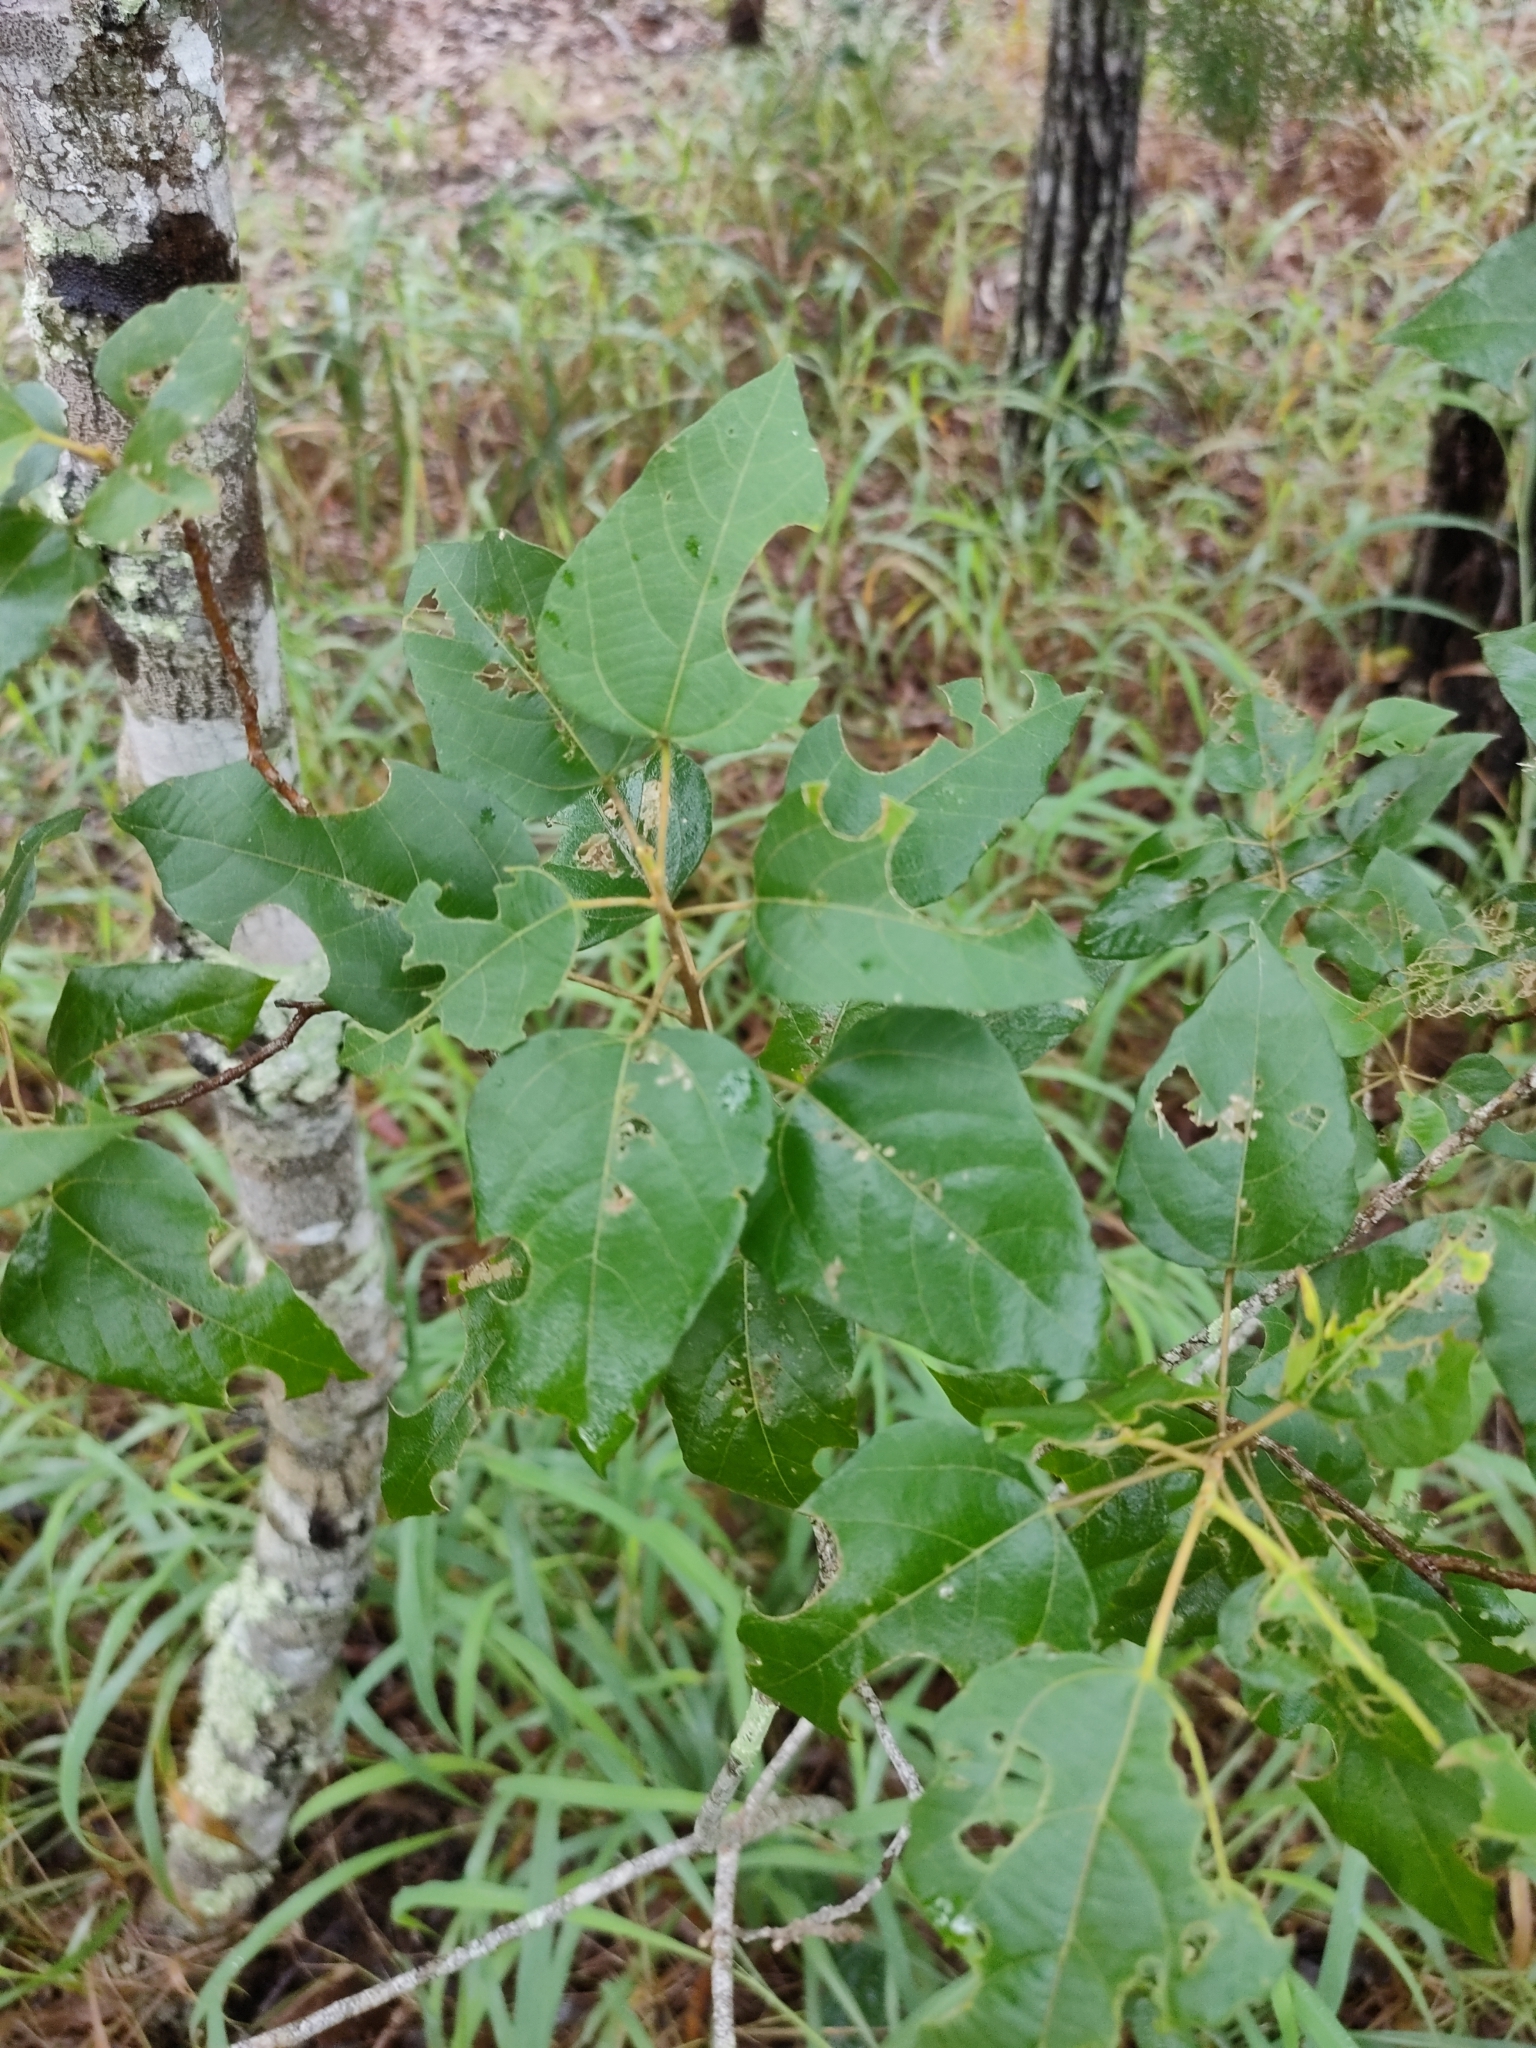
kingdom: Plantae
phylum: Tracheophyta
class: Magnoliopsida
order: Malpighiales
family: Euphorbiaceae
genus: Mallotus
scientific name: Mallotus discolor
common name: White kamala
